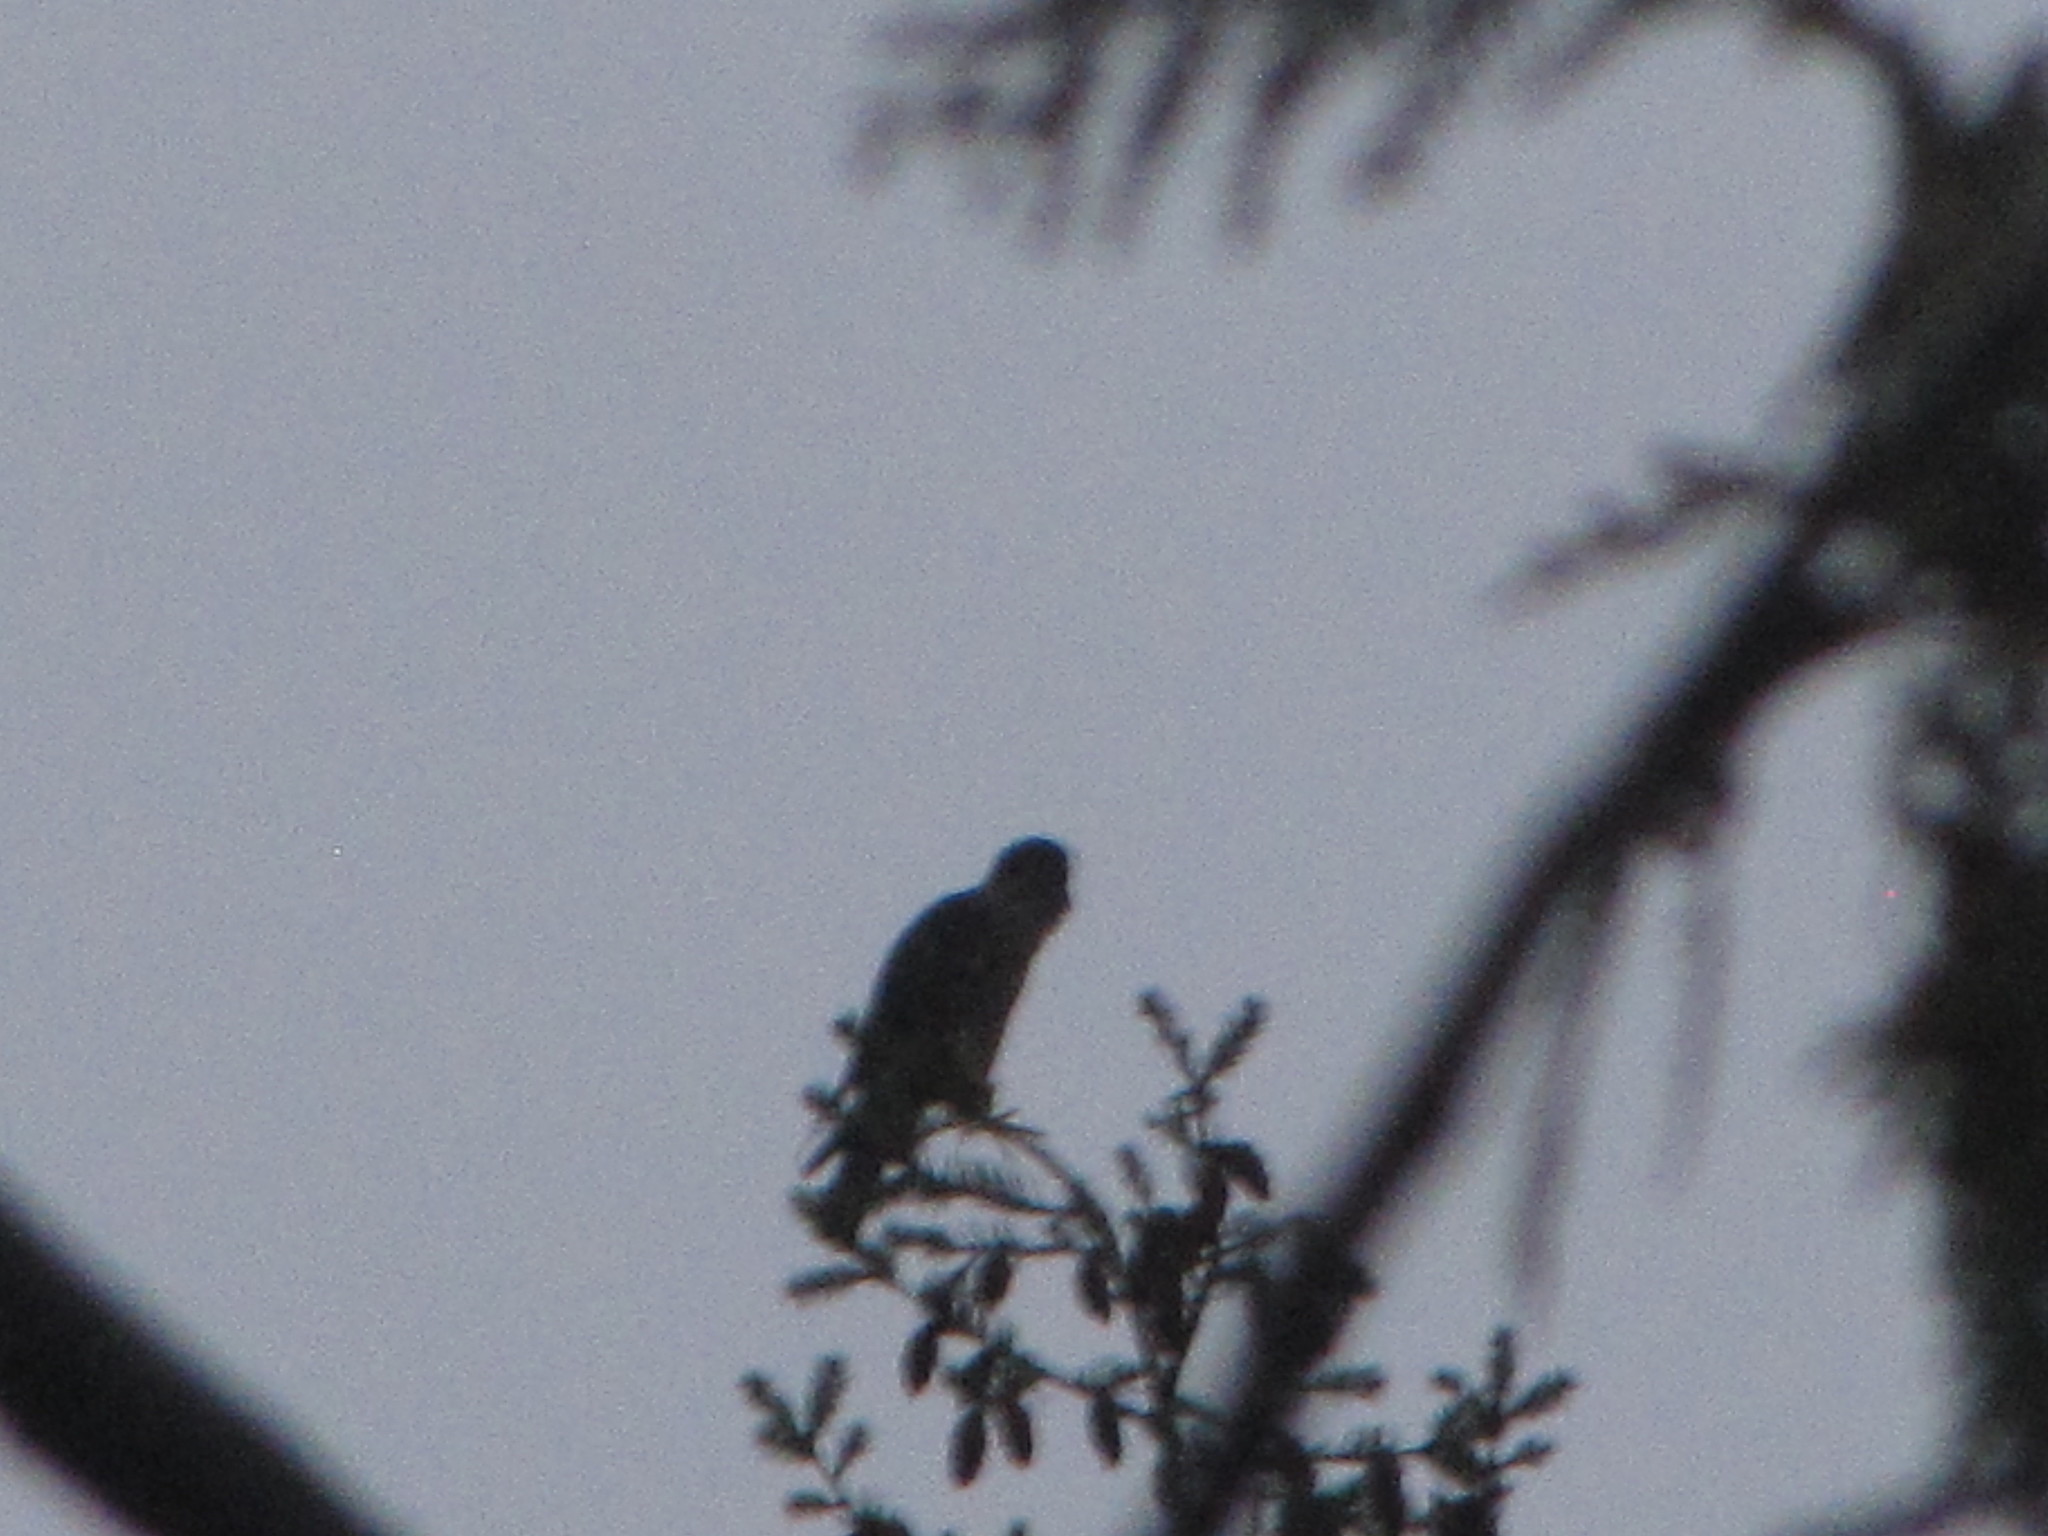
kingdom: Animalia
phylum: Chordata
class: Aves
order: Falconiformes
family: Falconidae
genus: Falco
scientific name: Falco columbarius
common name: Merlin
